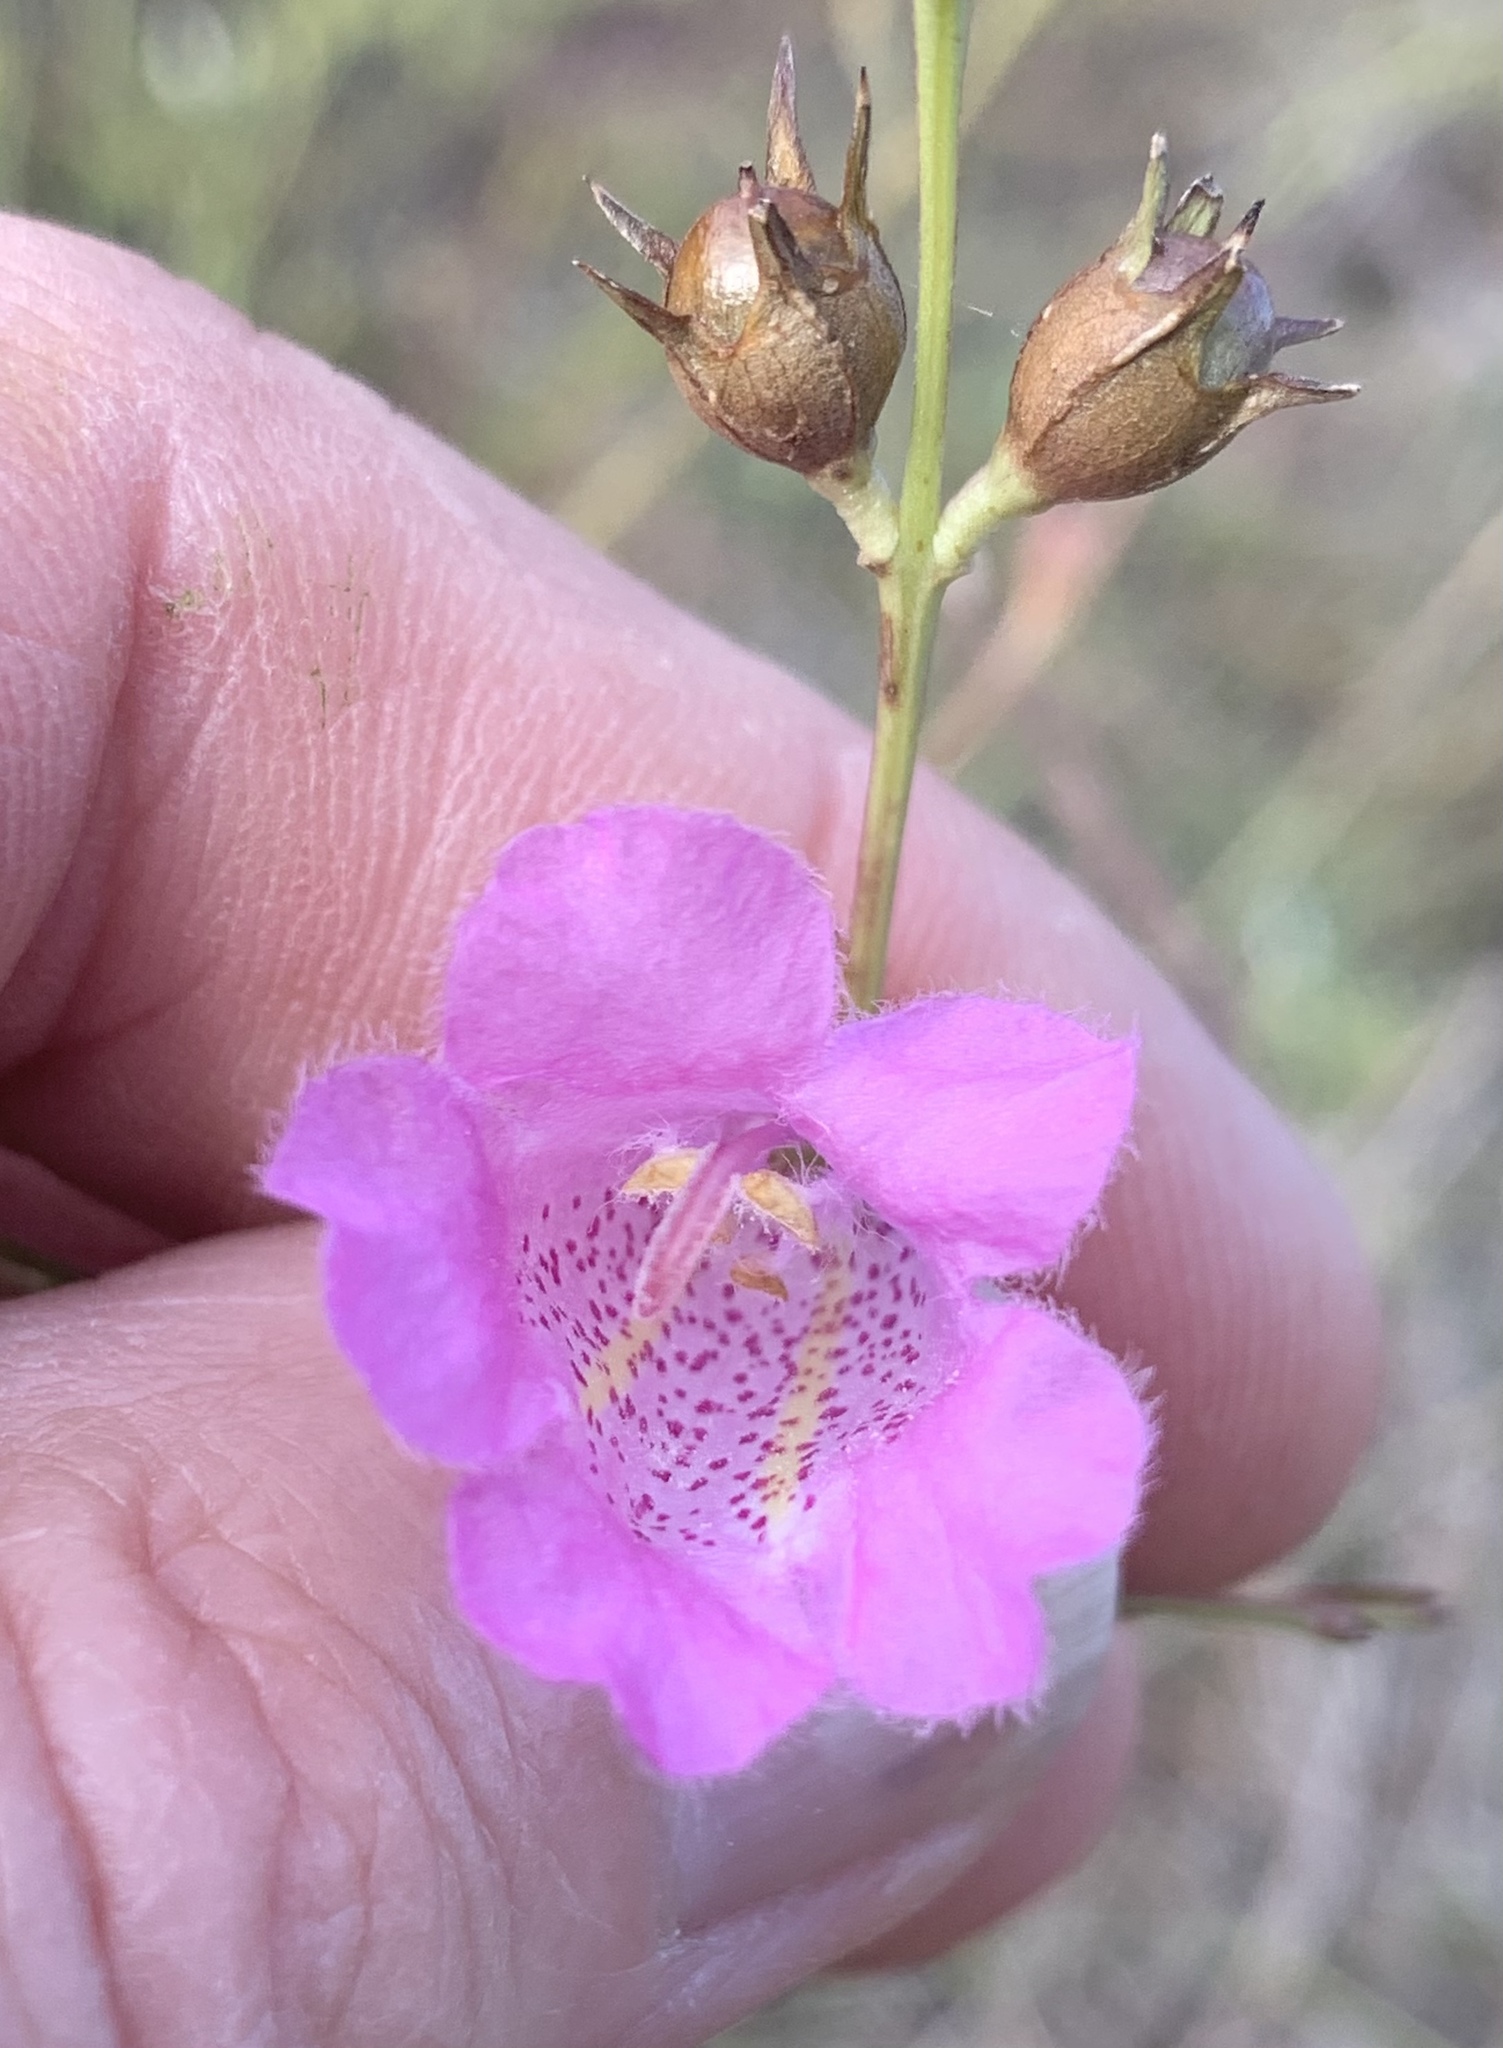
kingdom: Plantae
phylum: Tracheophyta
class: Magnoliopsida
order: Lamiales
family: Orobanchaceae
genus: Agalinis
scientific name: Agalinis heterophylla
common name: Prairie agalinis
